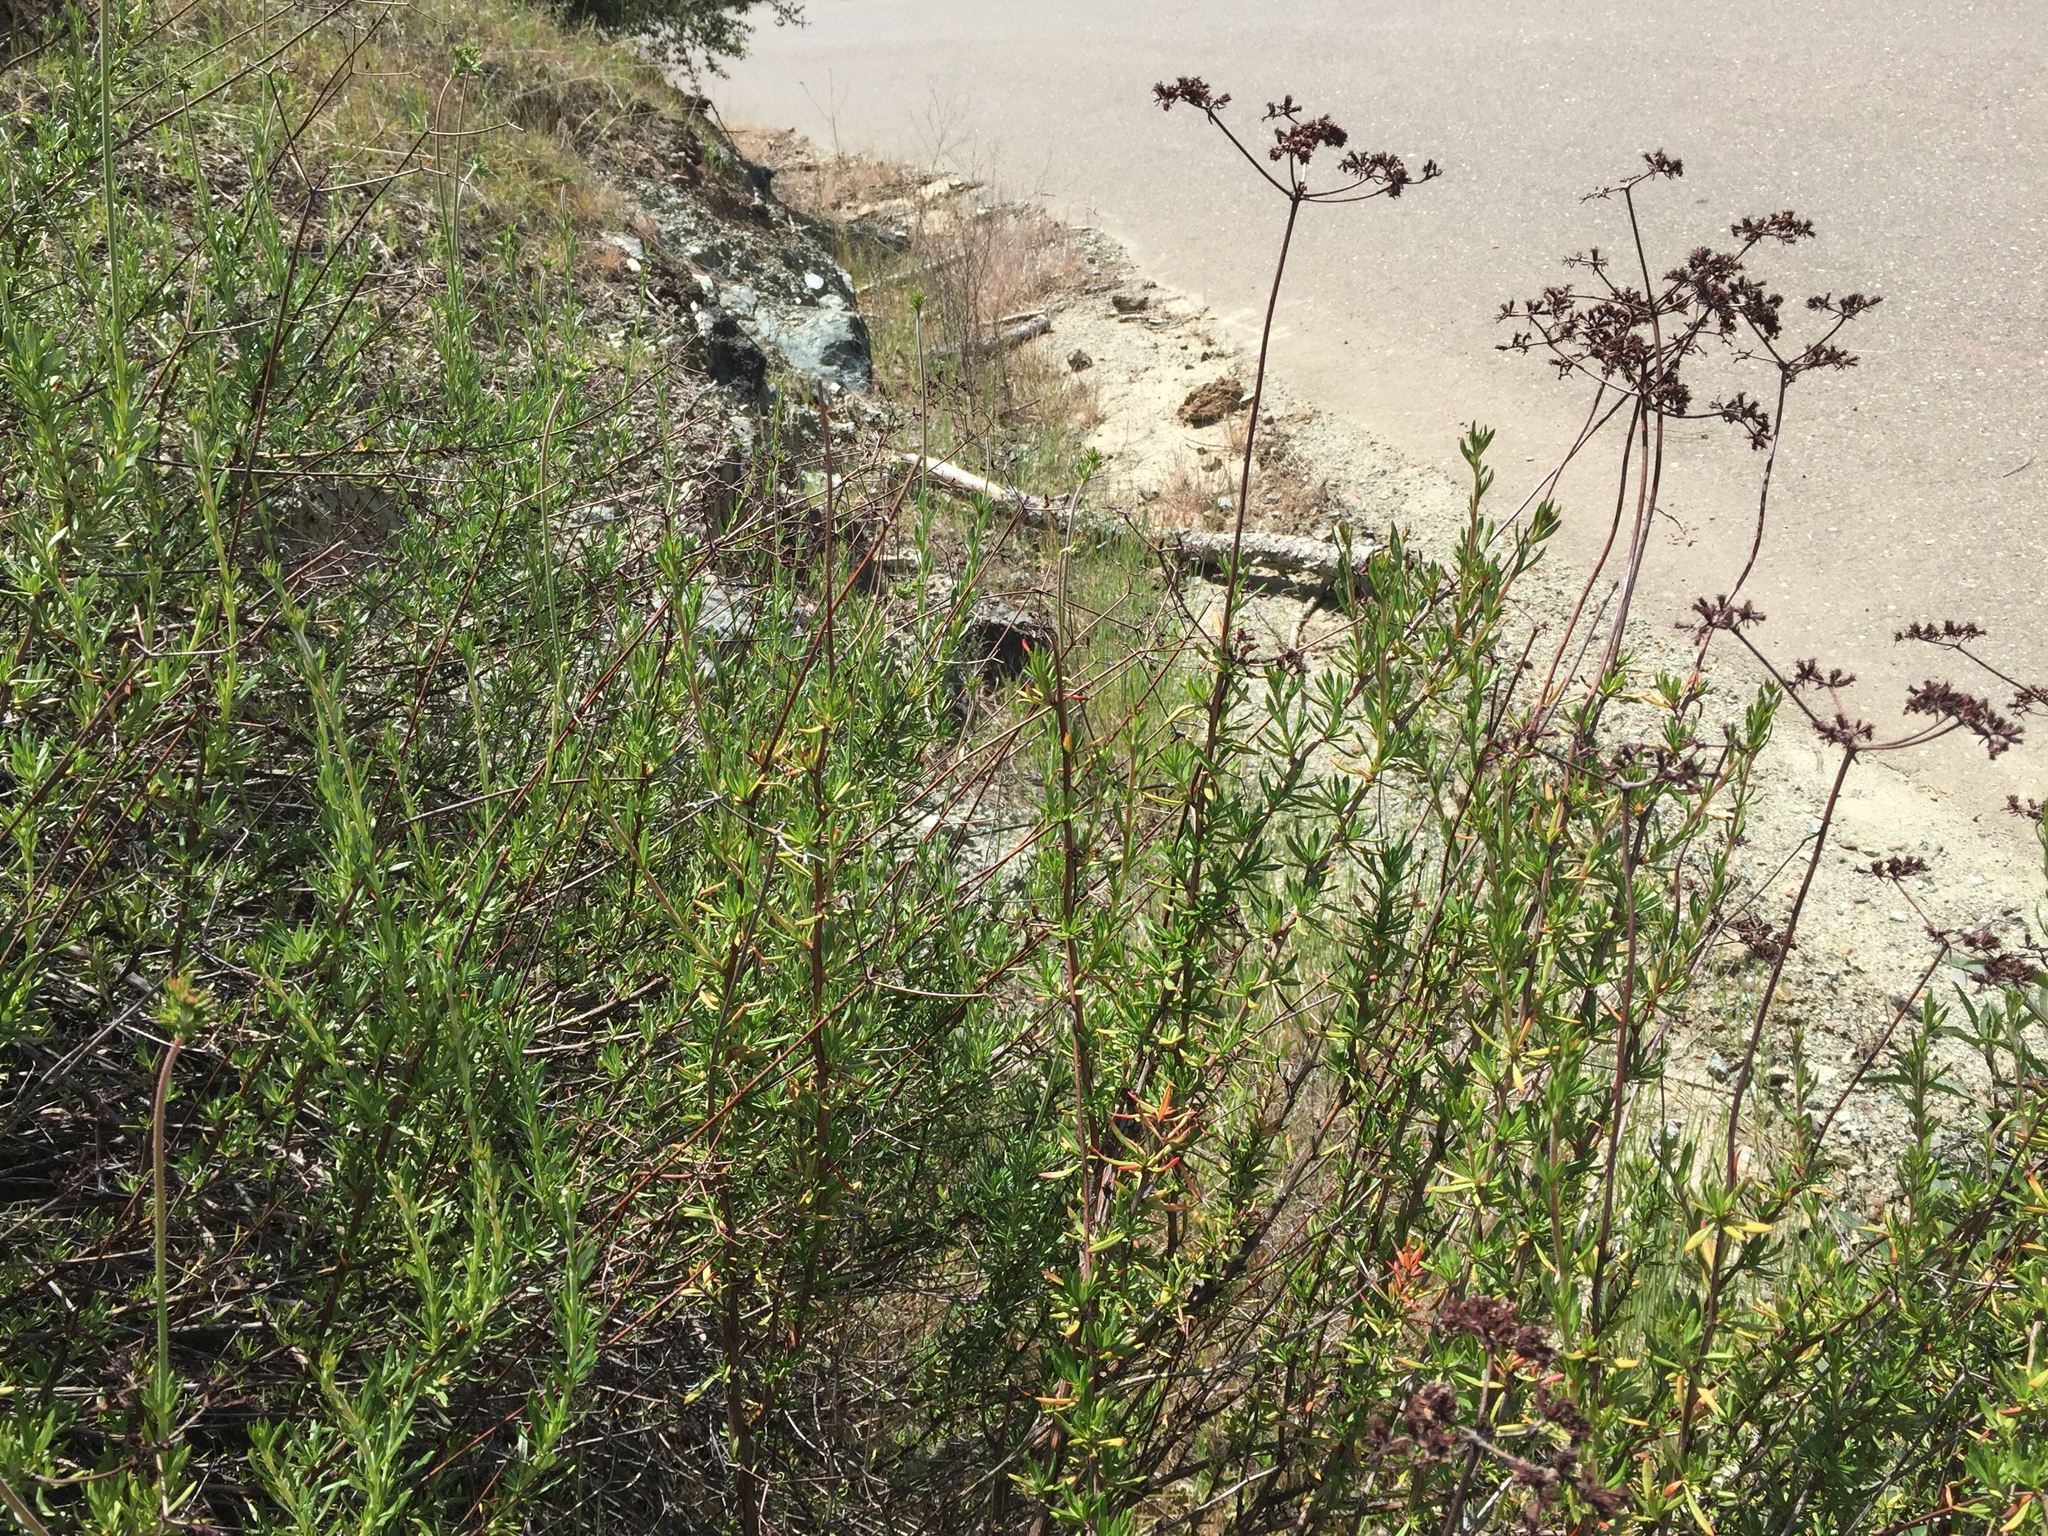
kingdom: Plantae
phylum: Tracheophyta
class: Magnoliopsida
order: Caryophyllales
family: Polygonaceae
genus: Eriogonum
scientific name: Eriogonum fasciculatum
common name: California wild buckwheat
